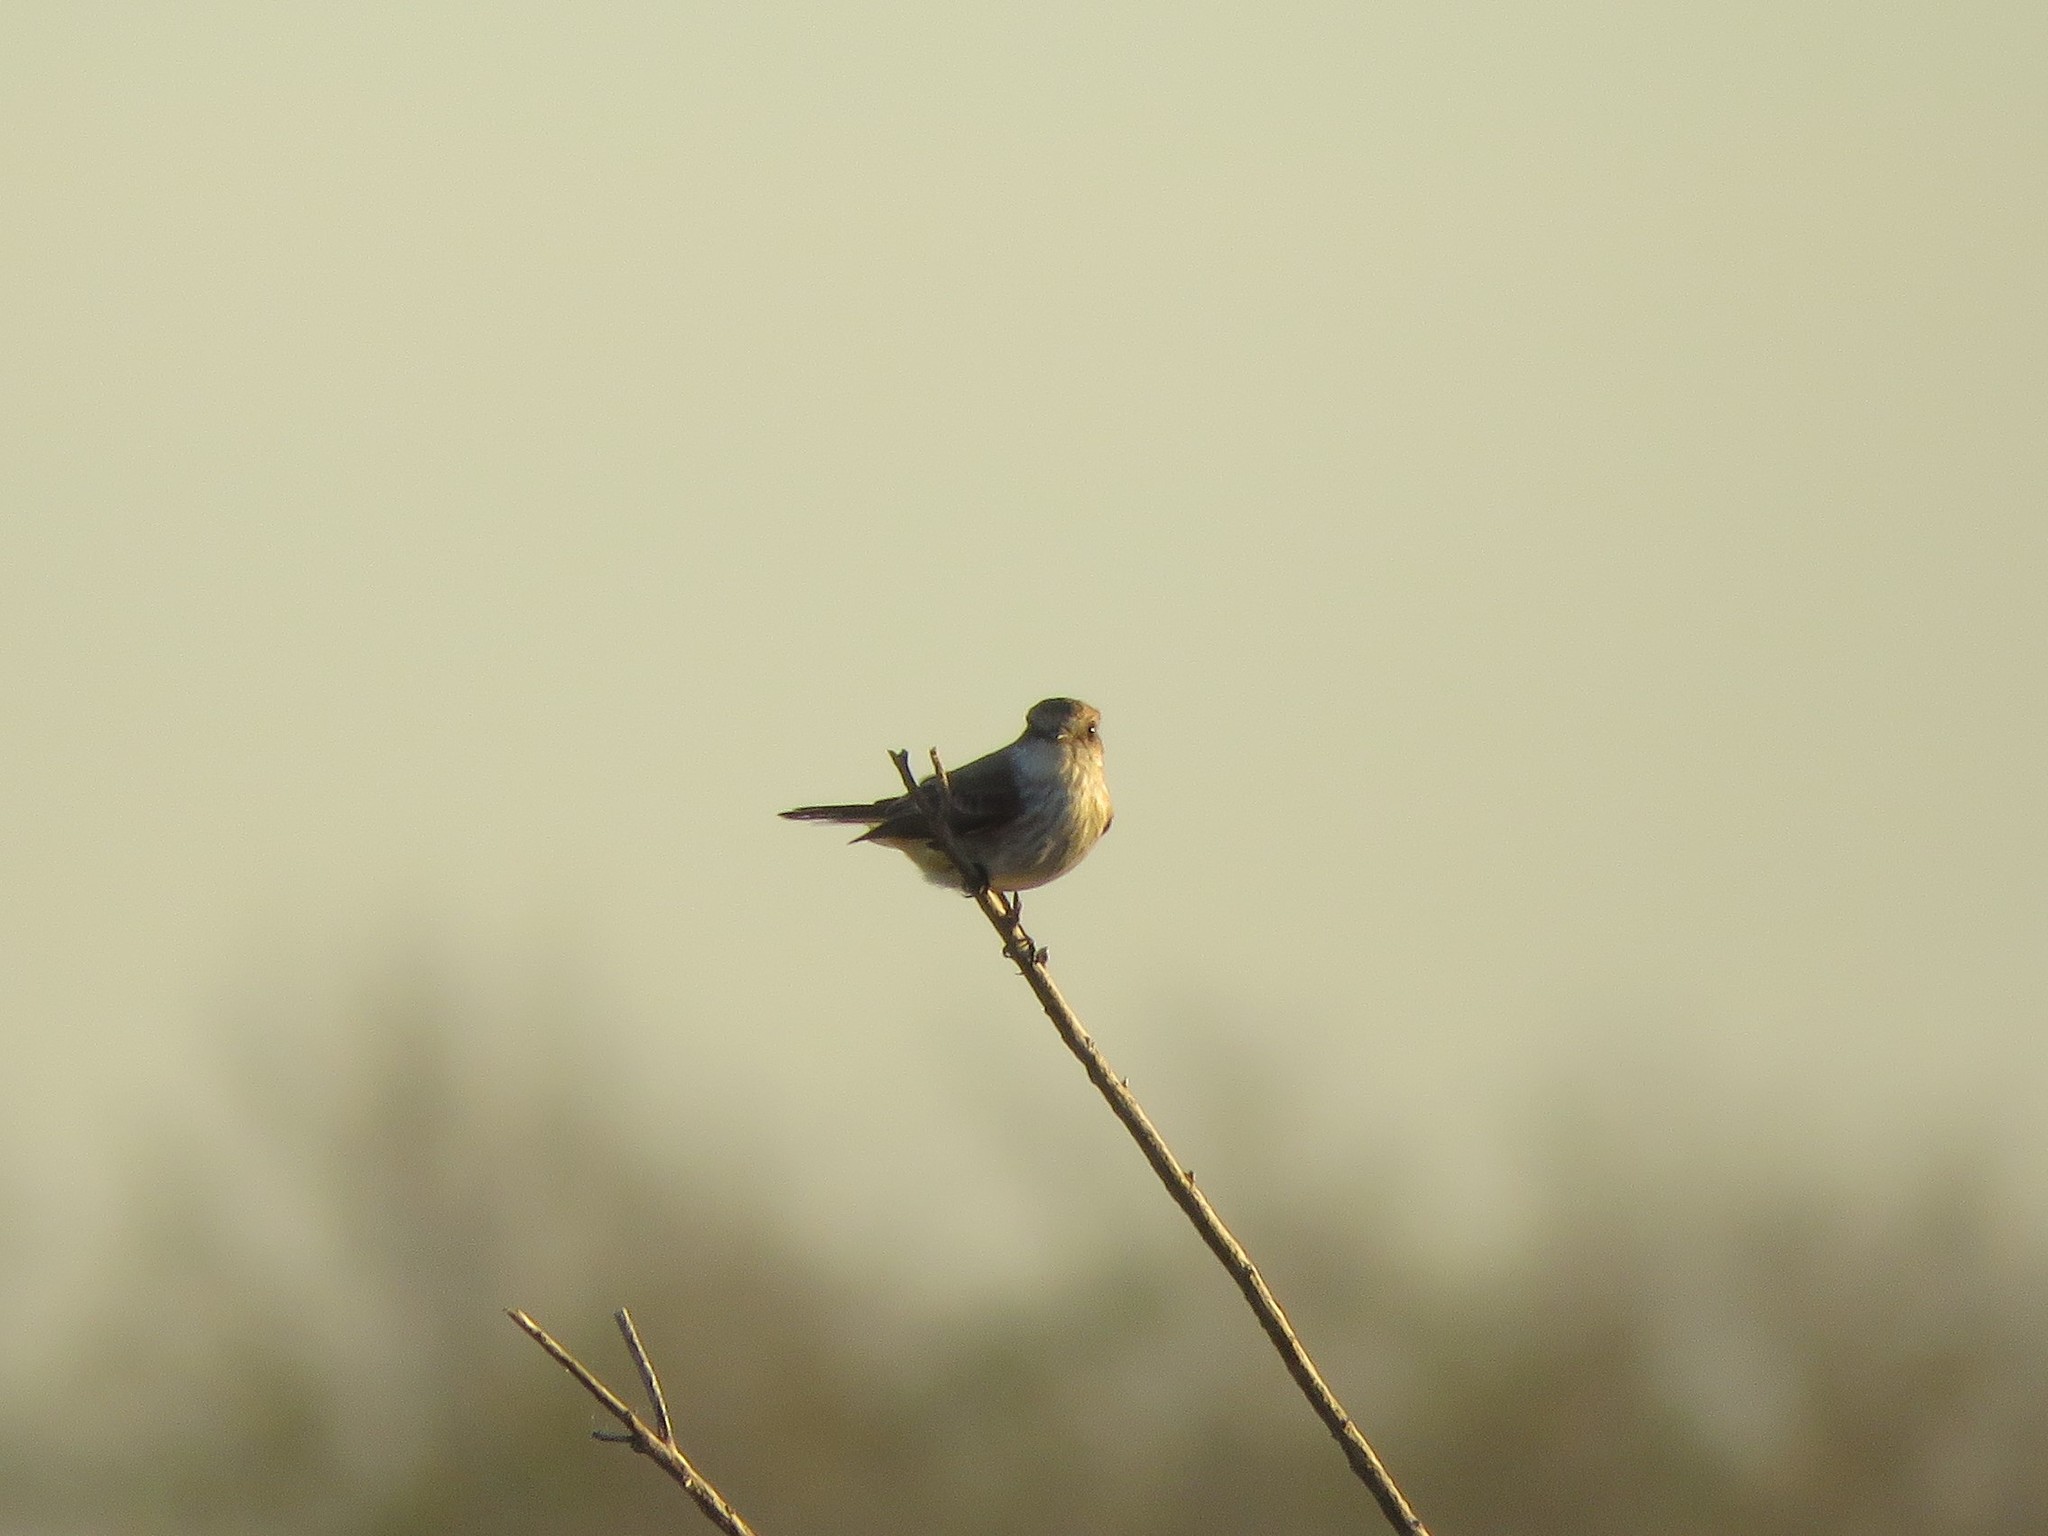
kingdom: Animalia
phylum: Chordata
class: Aves
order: Passeriformes
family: Tyrannidae
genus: Pyrocephalus
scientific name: Pyrocephalus rubinus
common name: Vermilion flycatcher
